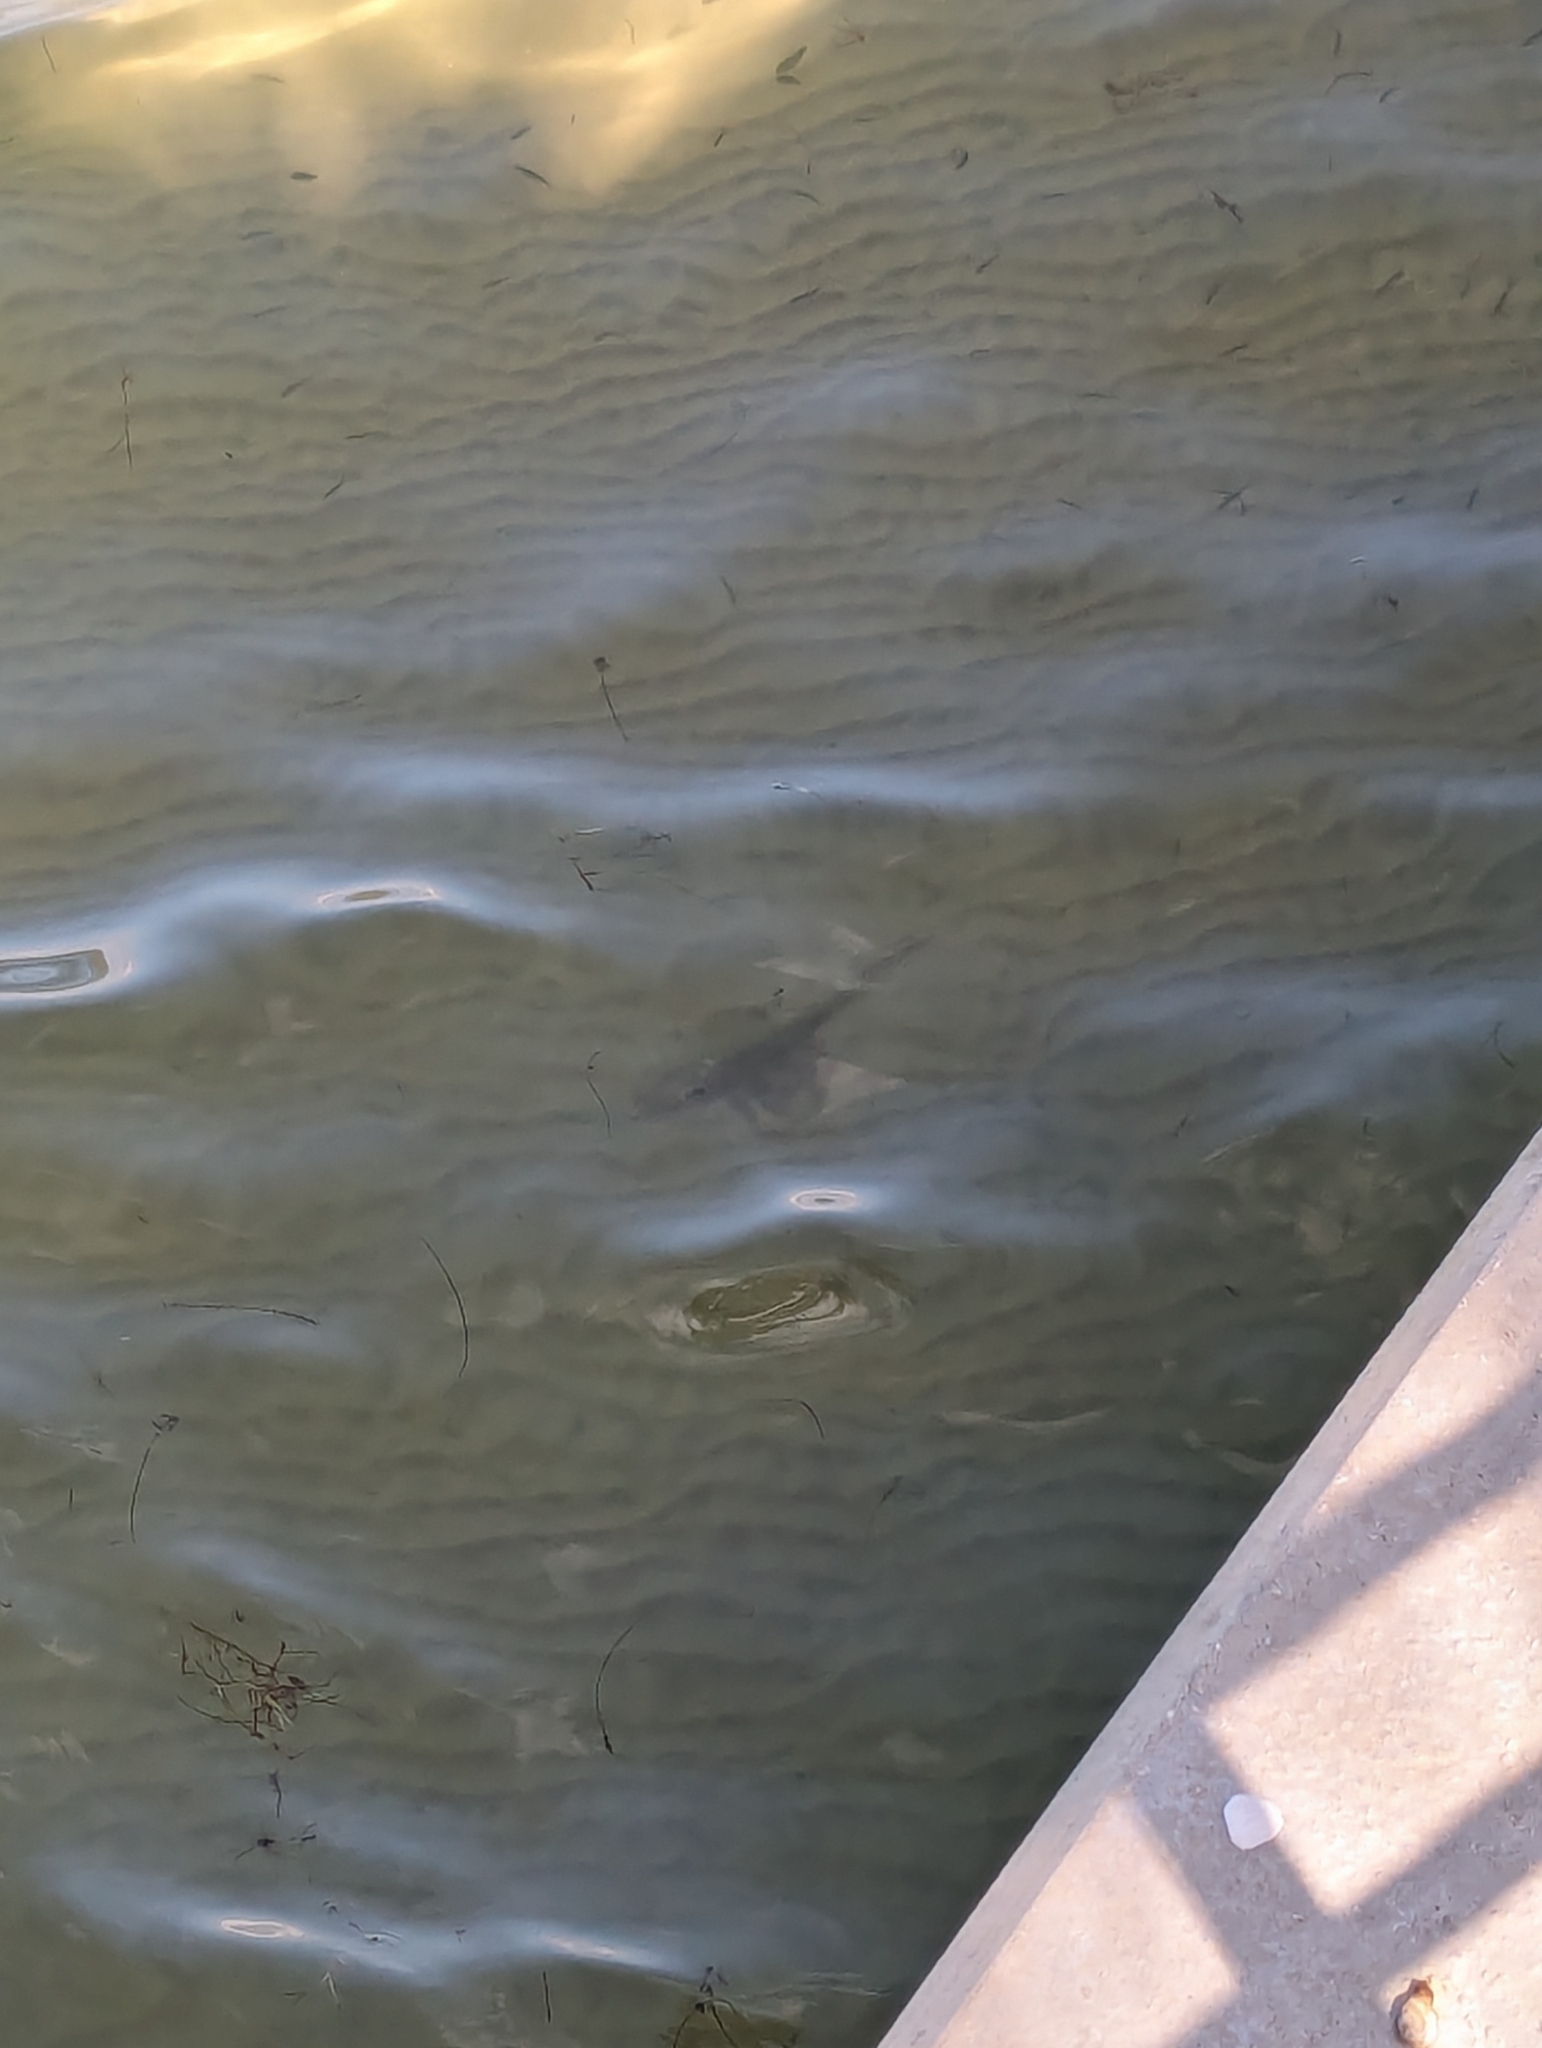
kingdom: Animalia
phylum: Chordata
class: Elasmobranchii
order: Myliobatiformes
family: Dasyatidae
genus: Hypanus
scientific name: Hypanus sabinus
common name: Atlantic stingray
